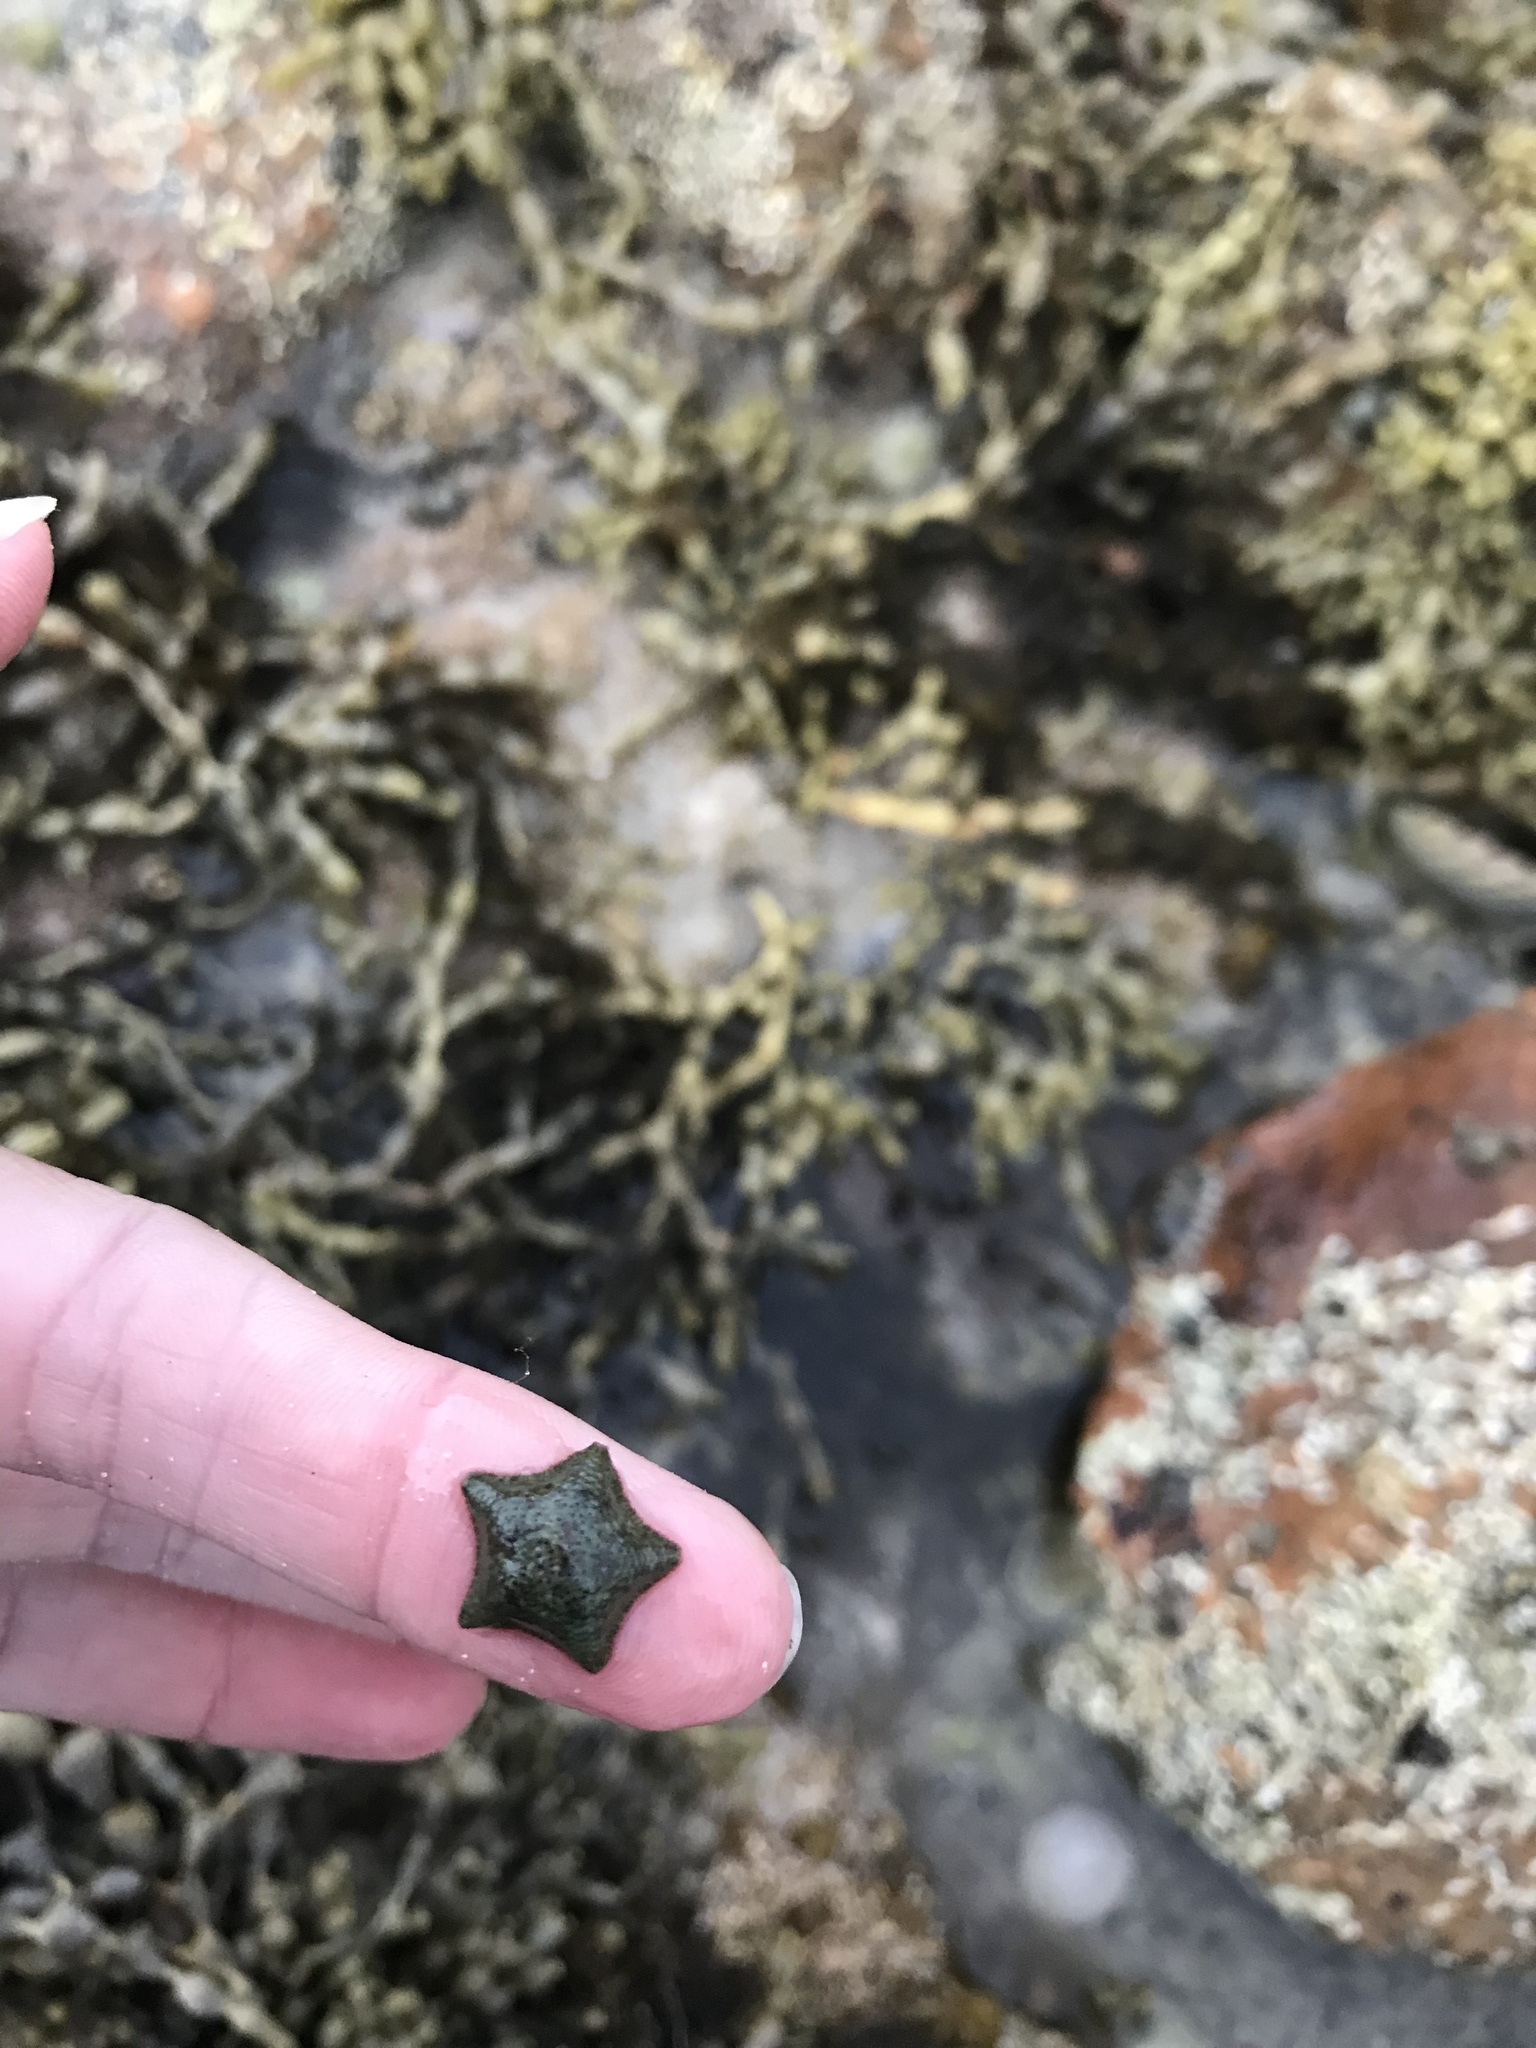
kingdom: Animalia
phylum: Echinodermata
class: Asteroidea
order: Valvatida
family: Asterinidae
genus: Parvulastra
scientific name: Parvulastra exigua
